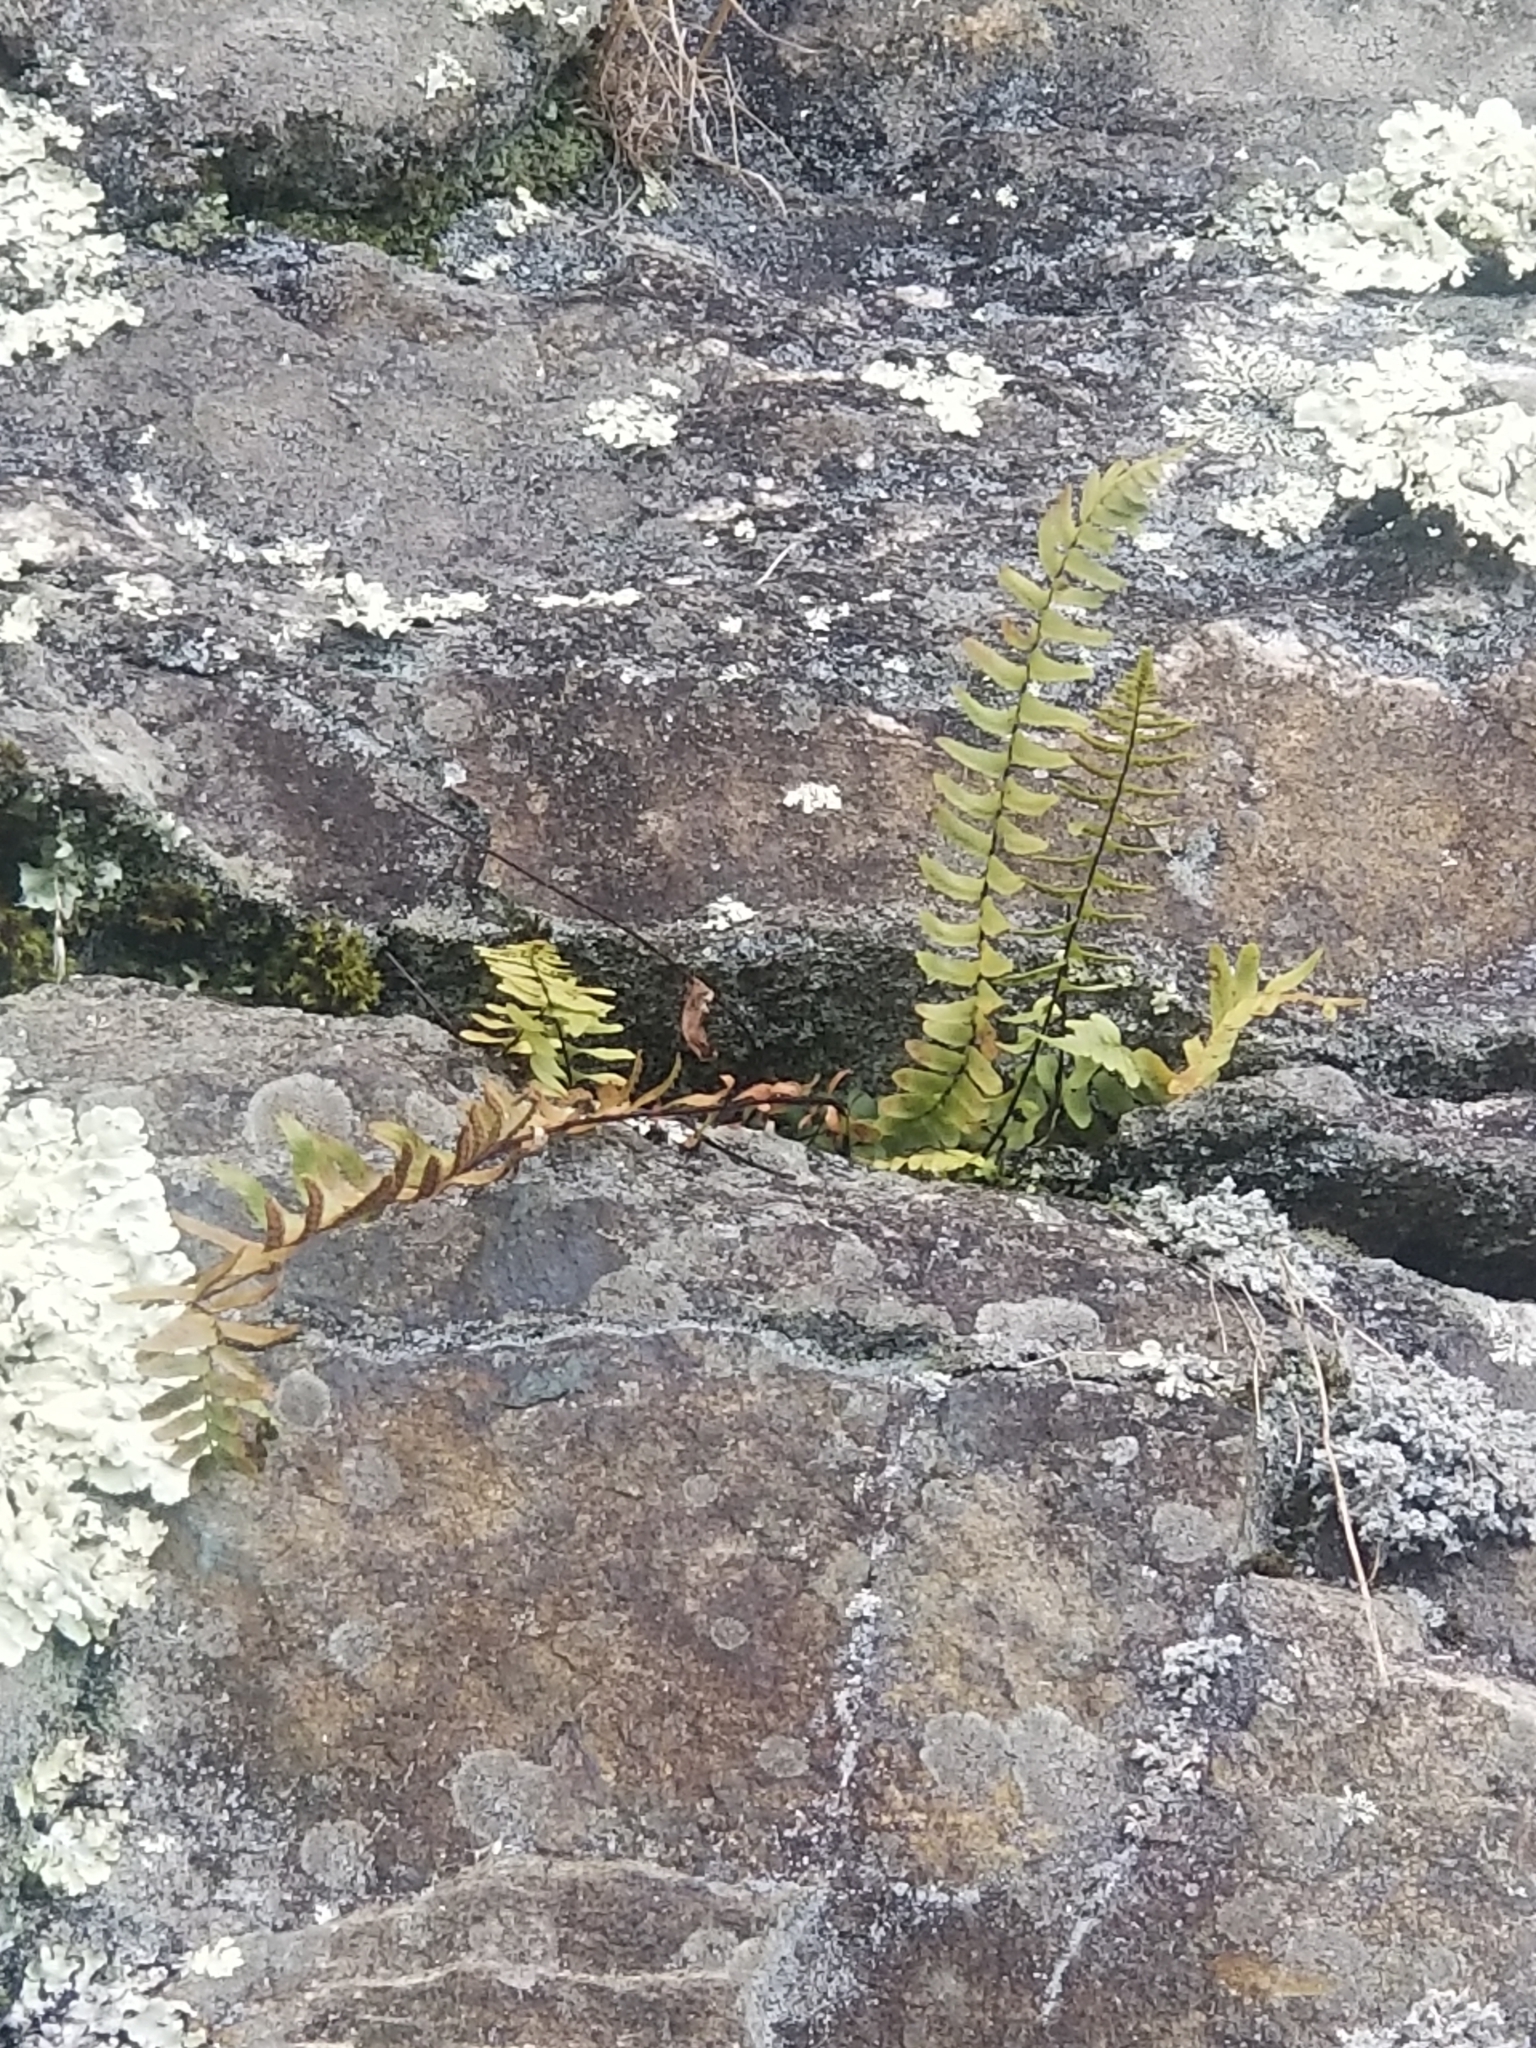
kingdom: Plantae
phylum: Tracheophyta
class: Polypodiopsida
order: Polypodiales
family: Aspleniaceae
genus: Asplenium
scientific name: Asplenium platyneuron
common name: Ebony spleenwort
